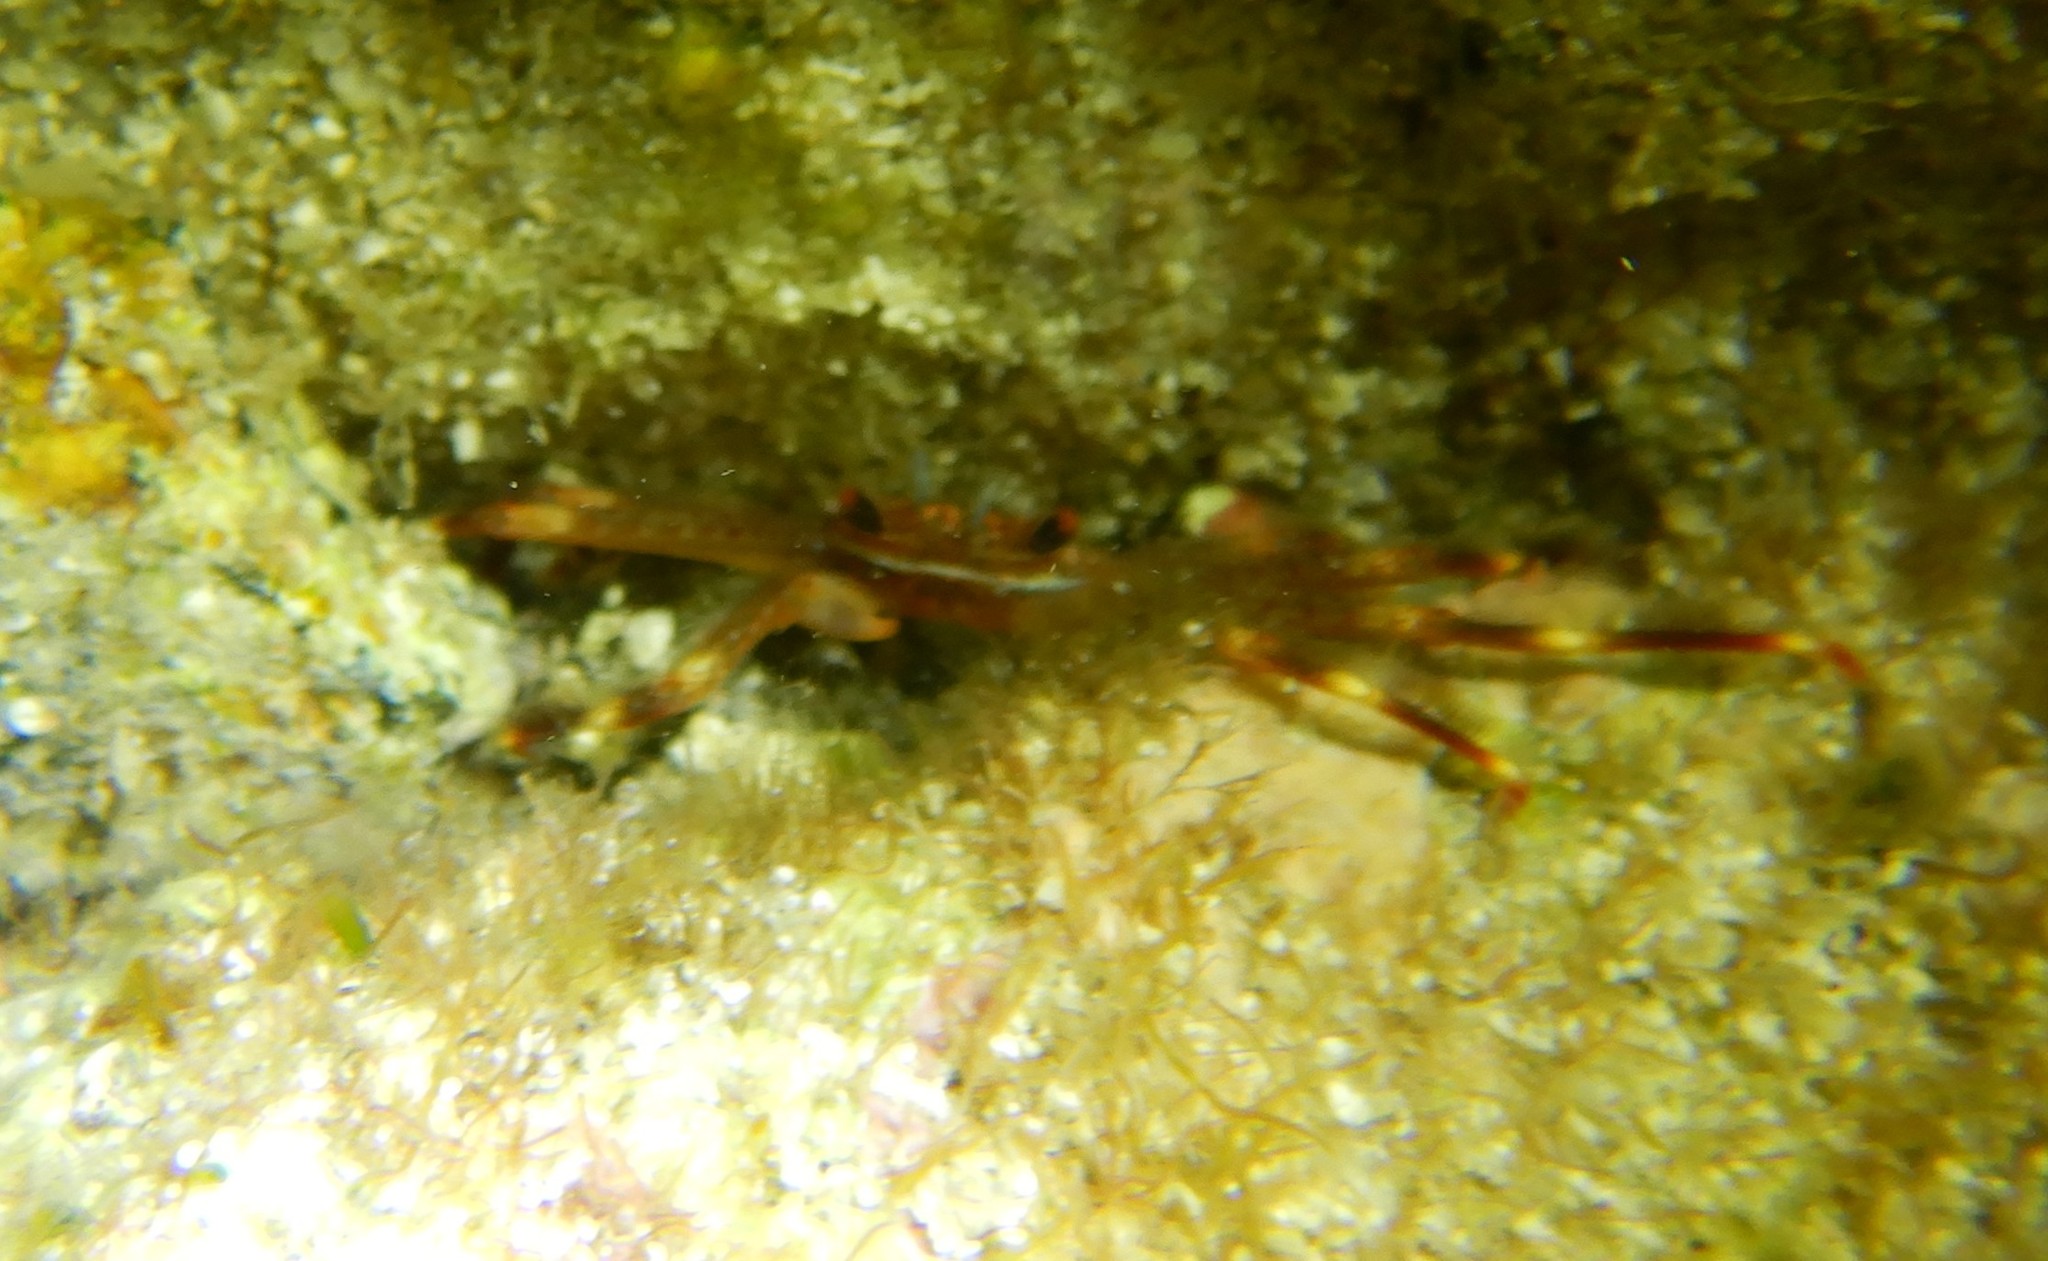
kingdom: Animalia
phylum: Arthropoda
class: Malacostraca
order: Decapoda
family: Percnidae
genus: Percnon
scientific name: Percnon gibbesi
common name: Nimble spray crab
